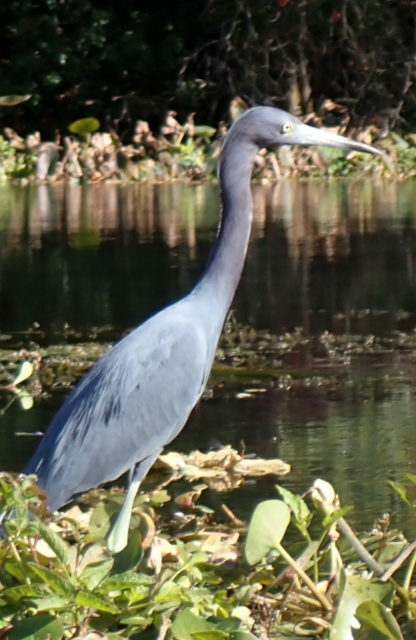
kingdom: Animalia
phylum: Chordata
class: Aves
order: Pelecaniformes
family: Ardeidae
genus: Egretta
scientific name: Egretta caerulea
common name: Little blue heron
